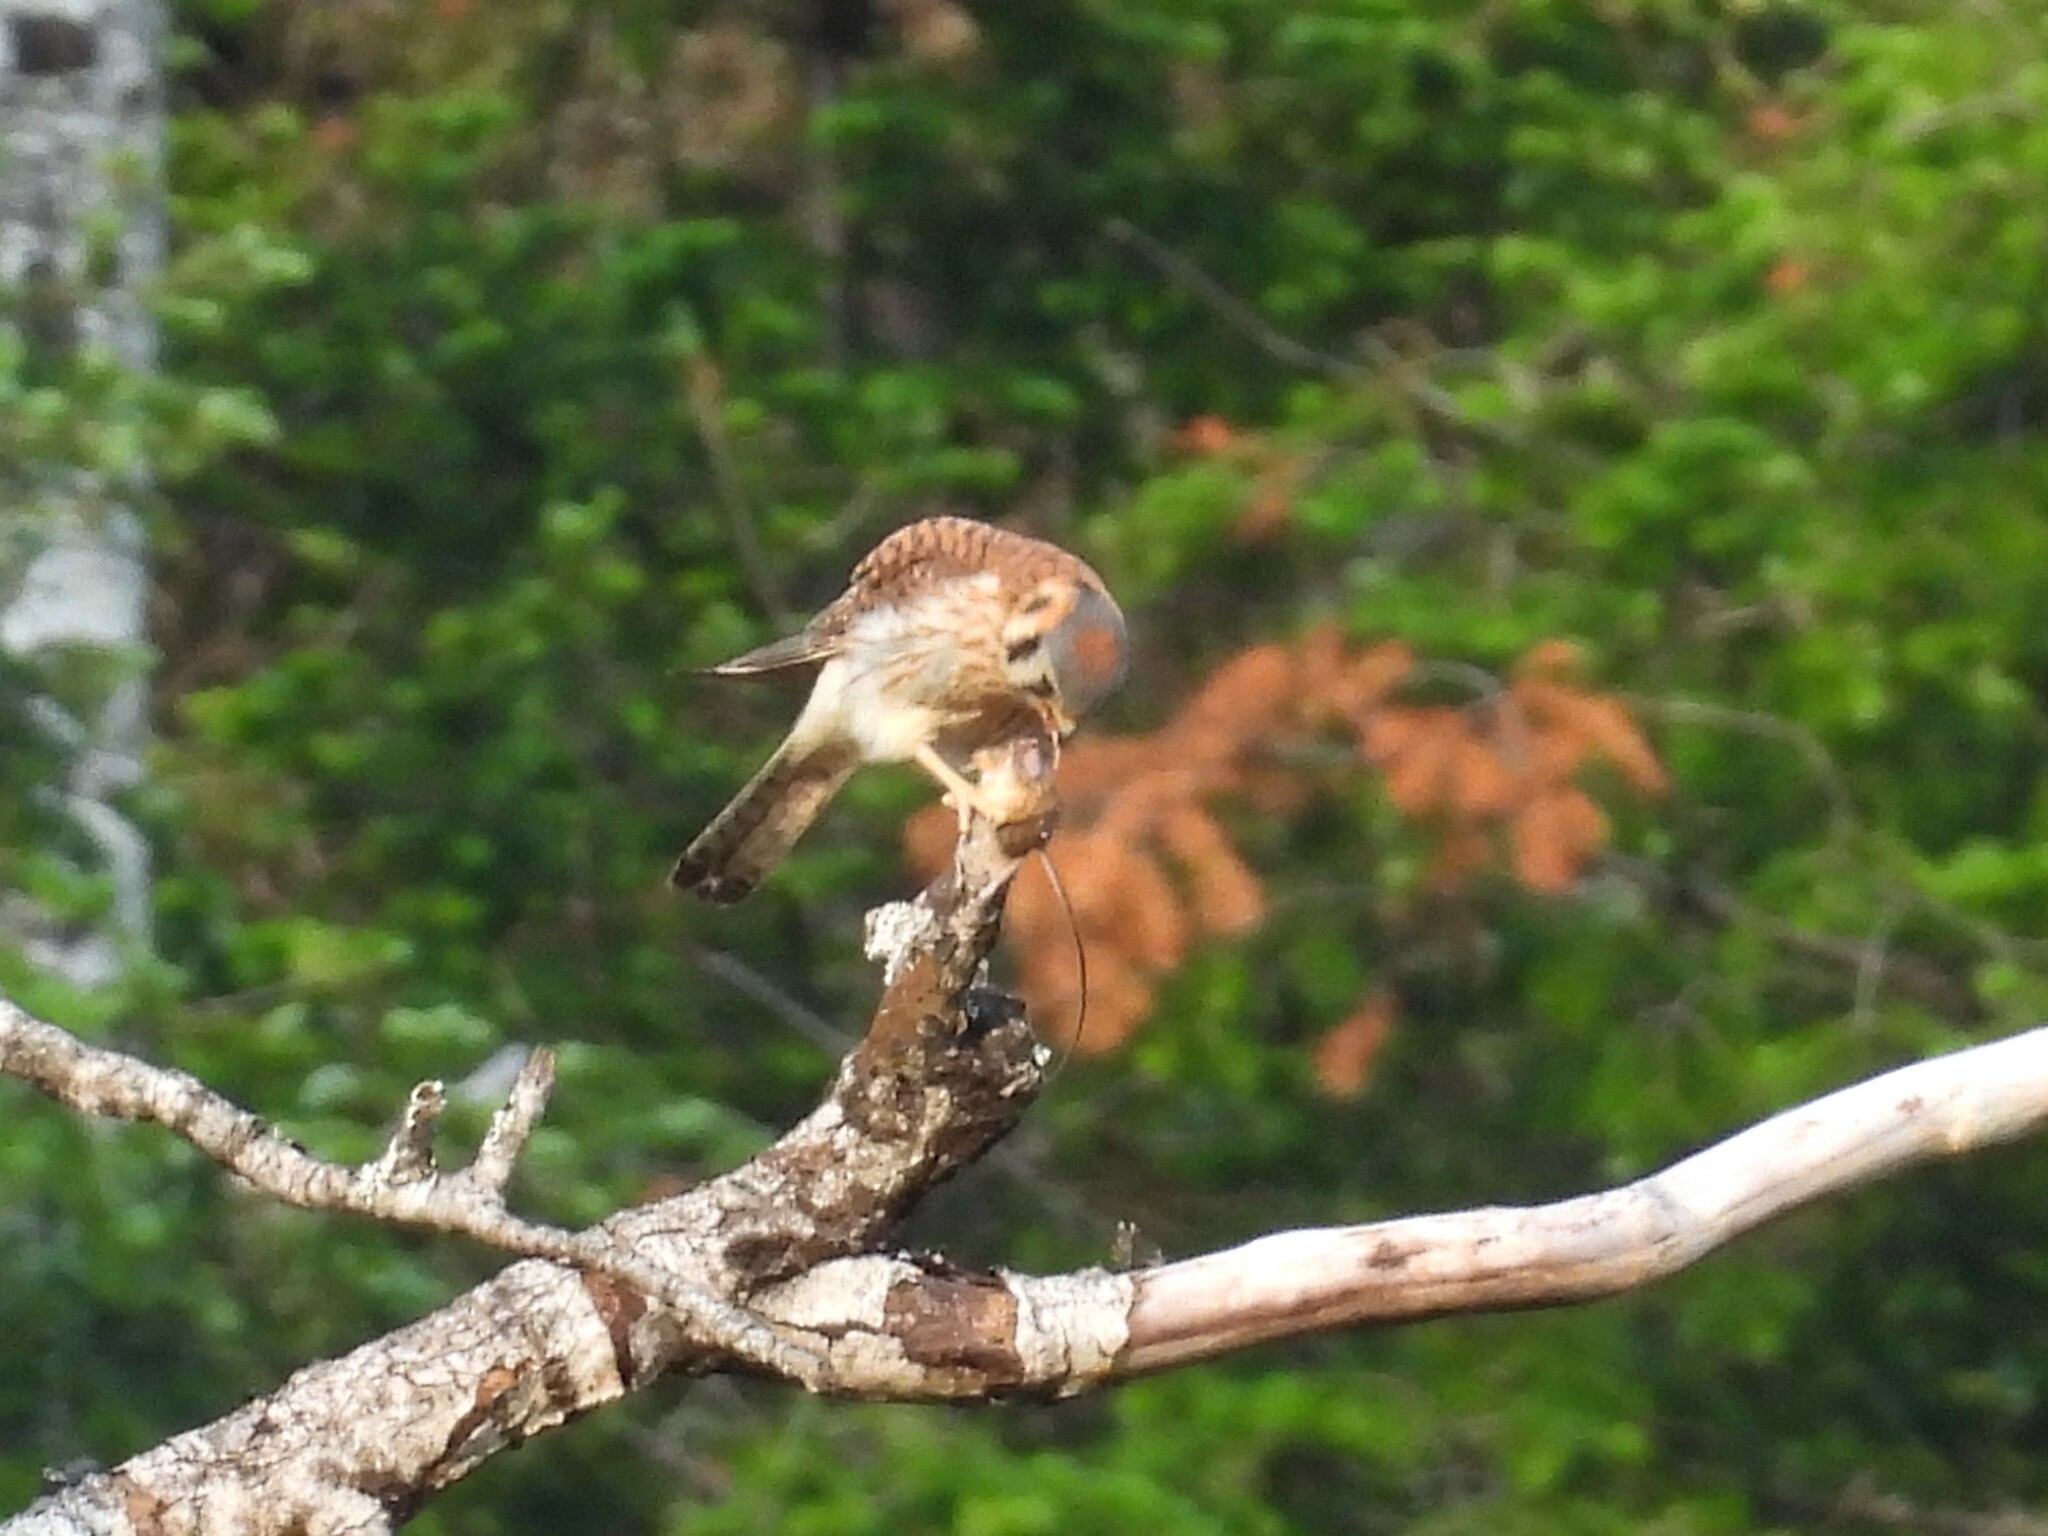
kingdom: Animalia
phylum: Chordata
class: Aves
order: Falconiformes
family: Falconidae
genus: Falco
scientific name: Falco sparverius
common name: American kestrel
